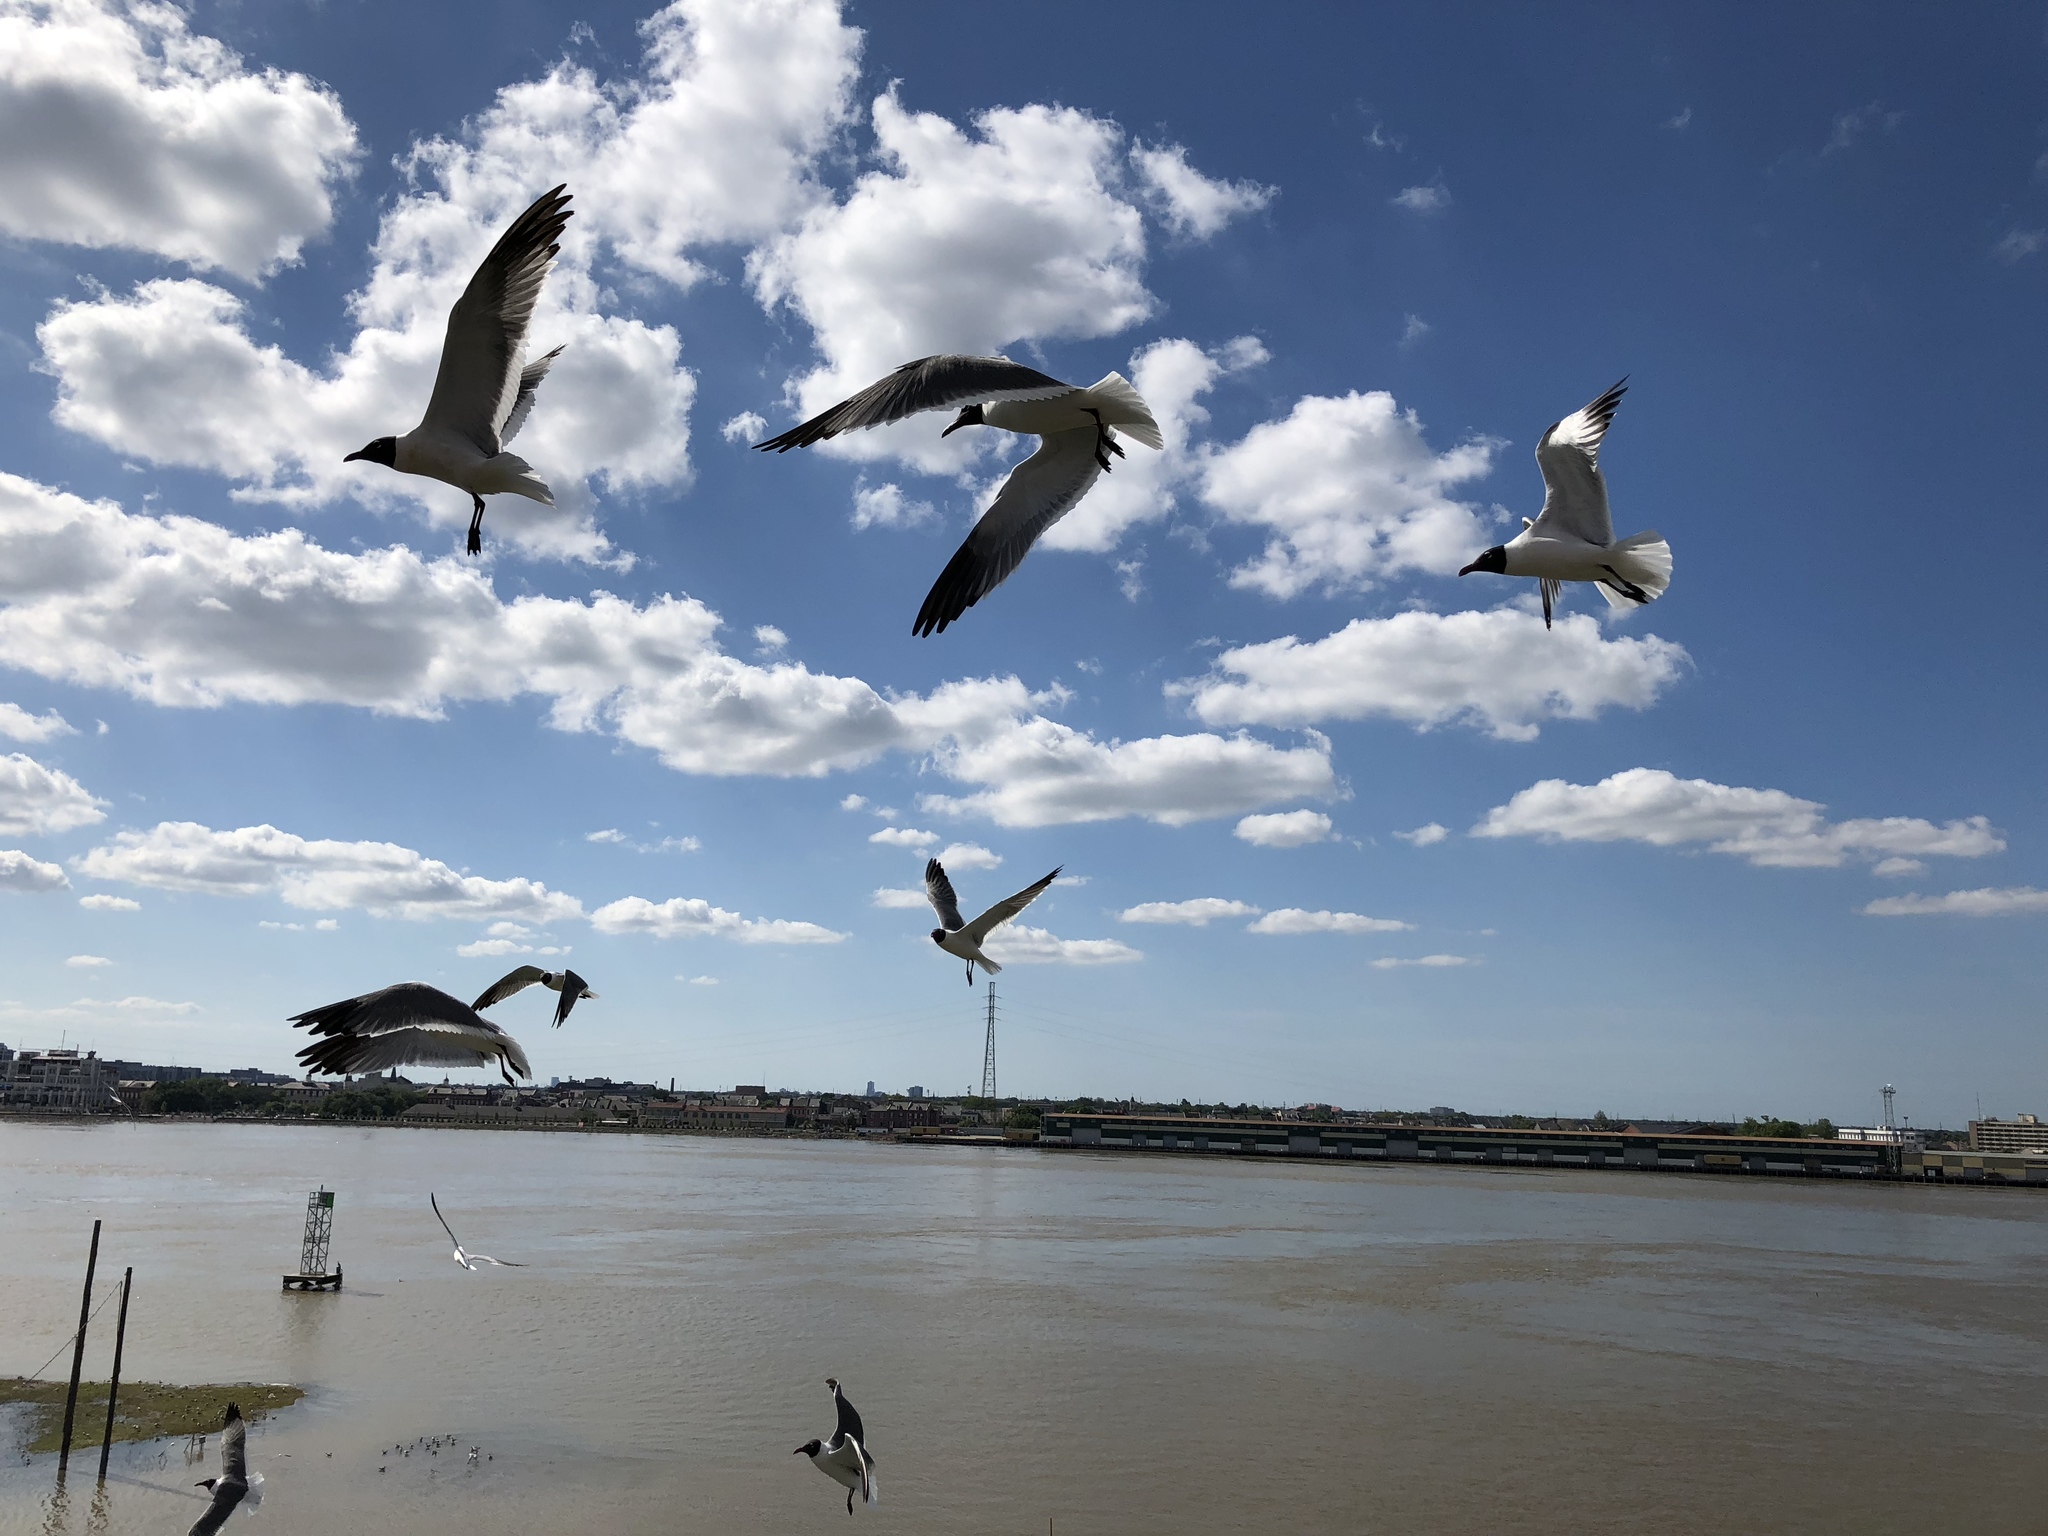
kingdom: Animalia
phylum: Chordata
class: Aves
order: Charadriiformes
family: Laridae
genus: Leucophaeus
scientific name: Leucophaeus atricilla
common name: Laughing gull
